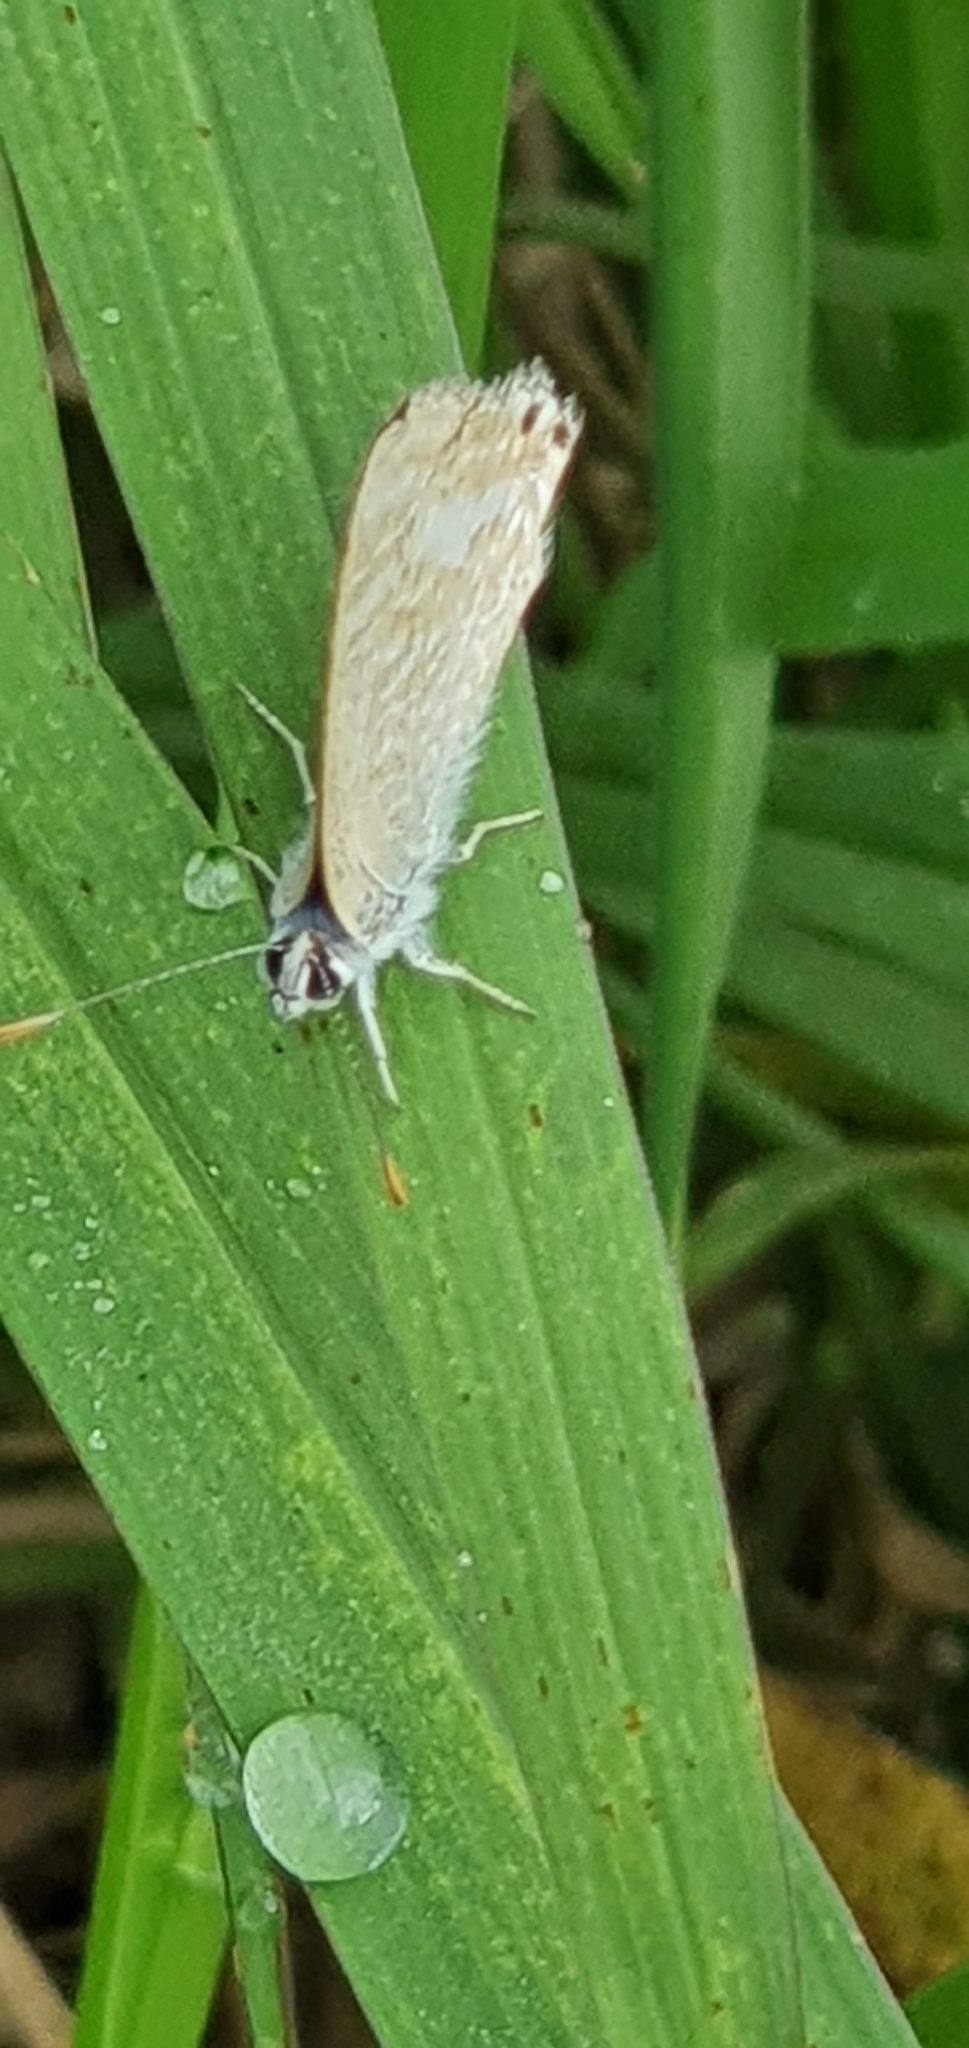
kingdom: Animalia
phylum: Arthropoda
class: Insecta
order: Lepidoptera
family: Lycaenidae
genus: Lampides
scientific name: Lampides boeticus
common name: Long-tailed blue
